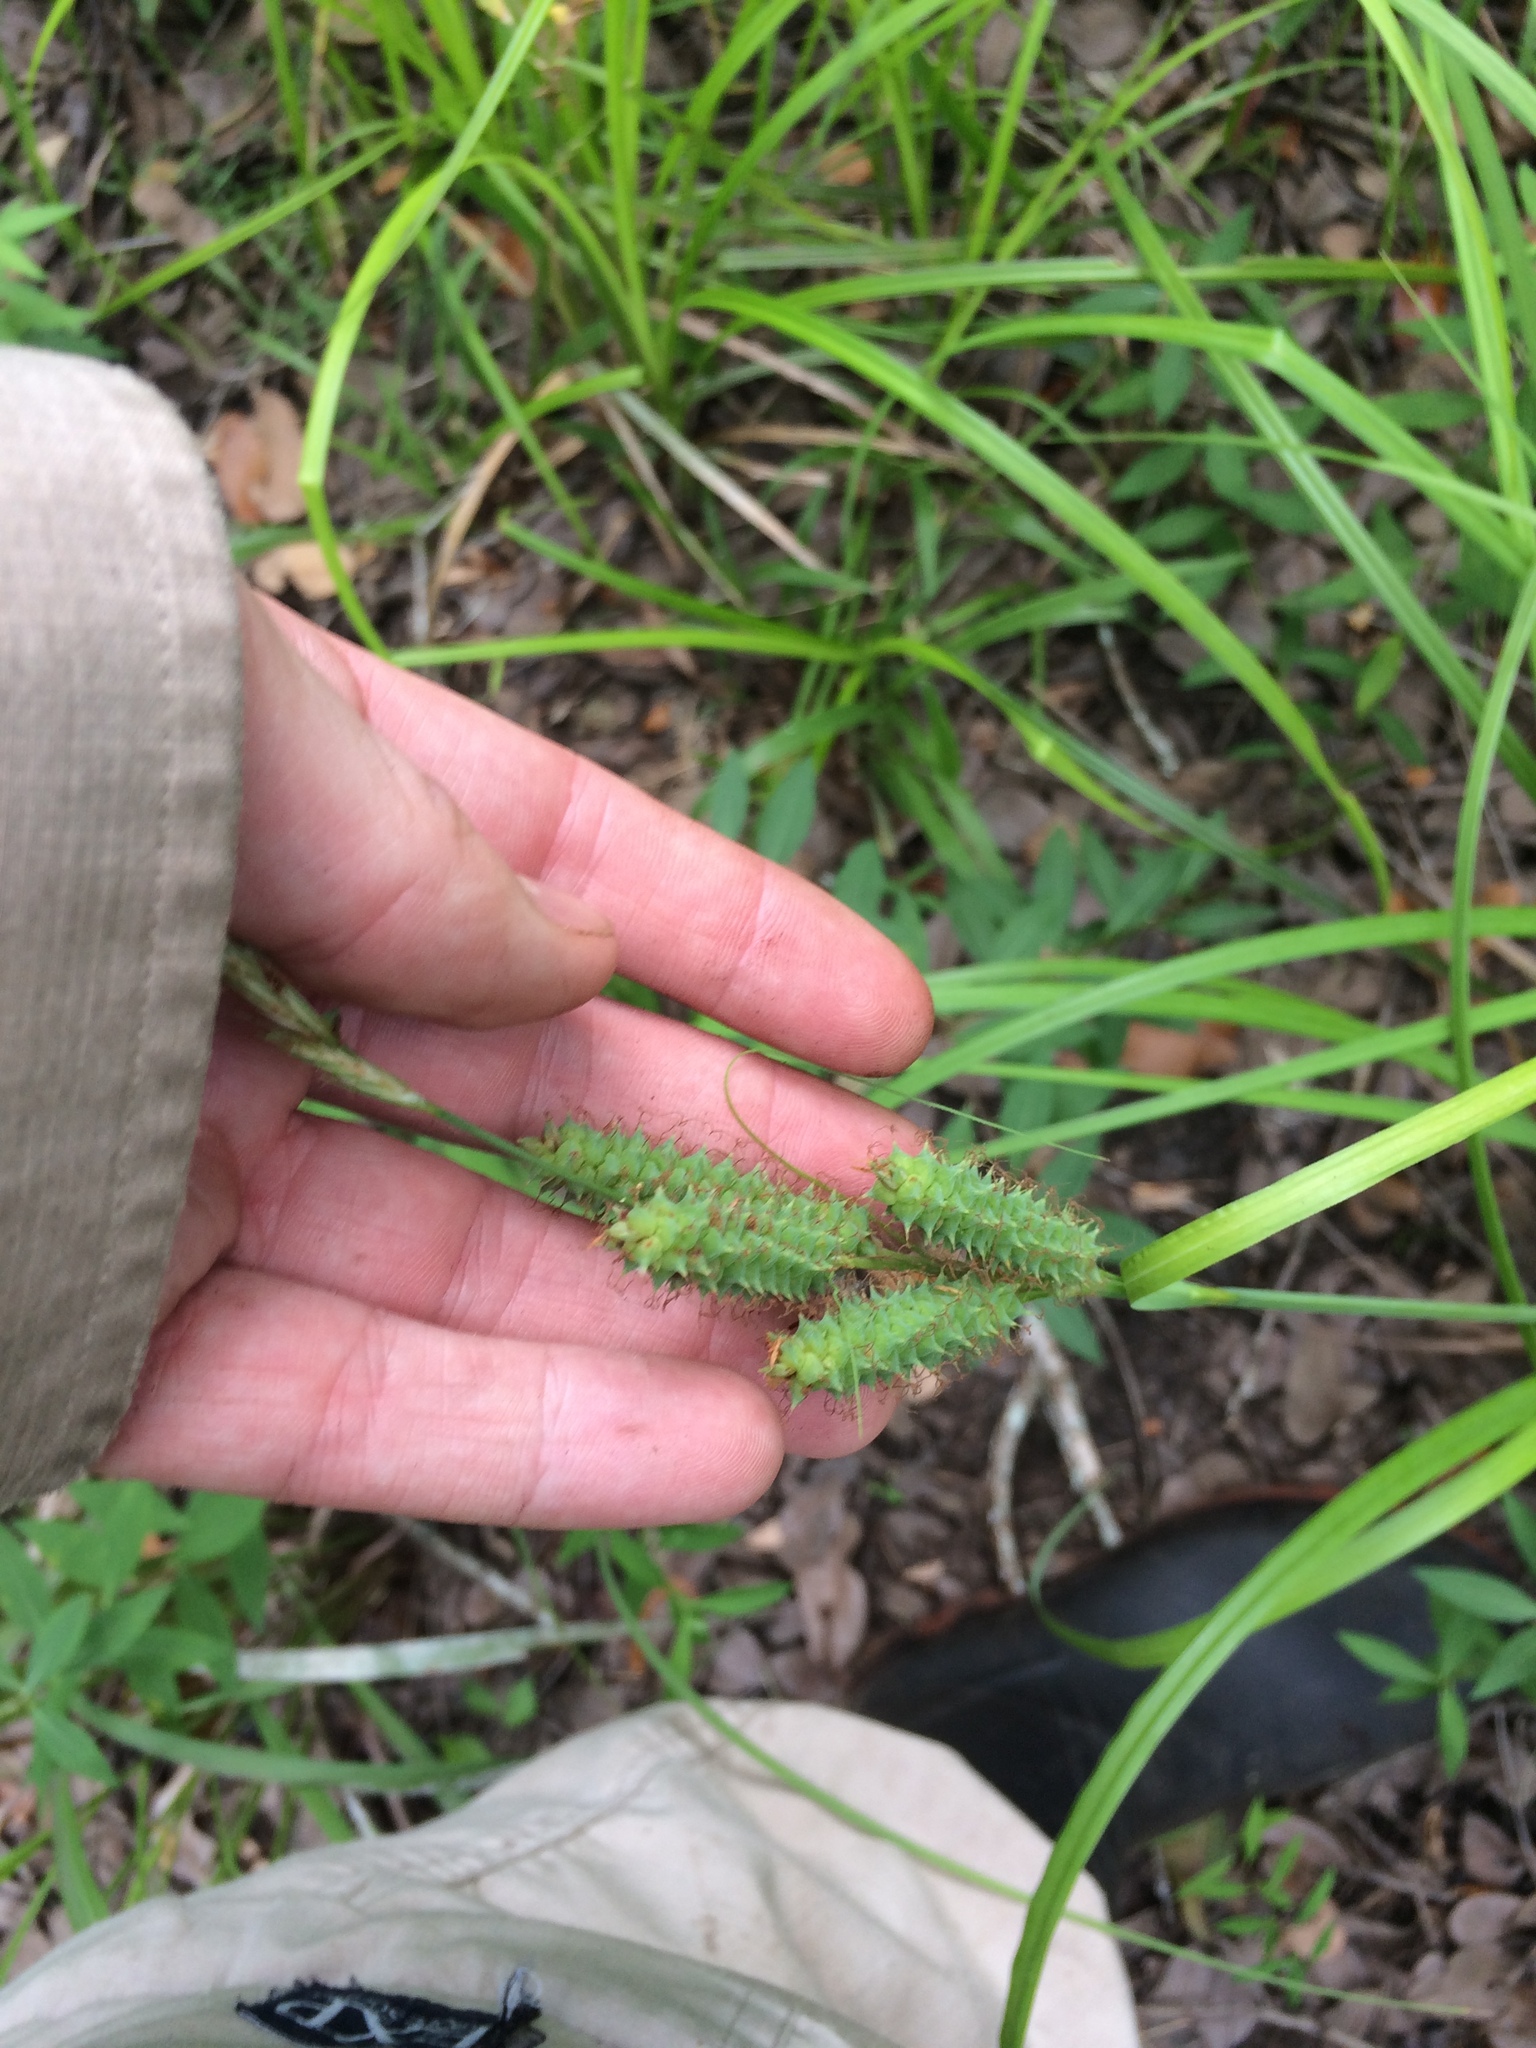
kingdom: Plantae
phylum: Tracheophyta
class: Liliopsida
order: Poales
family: Cyperaceae
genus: Carex
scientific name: Carex joorii
